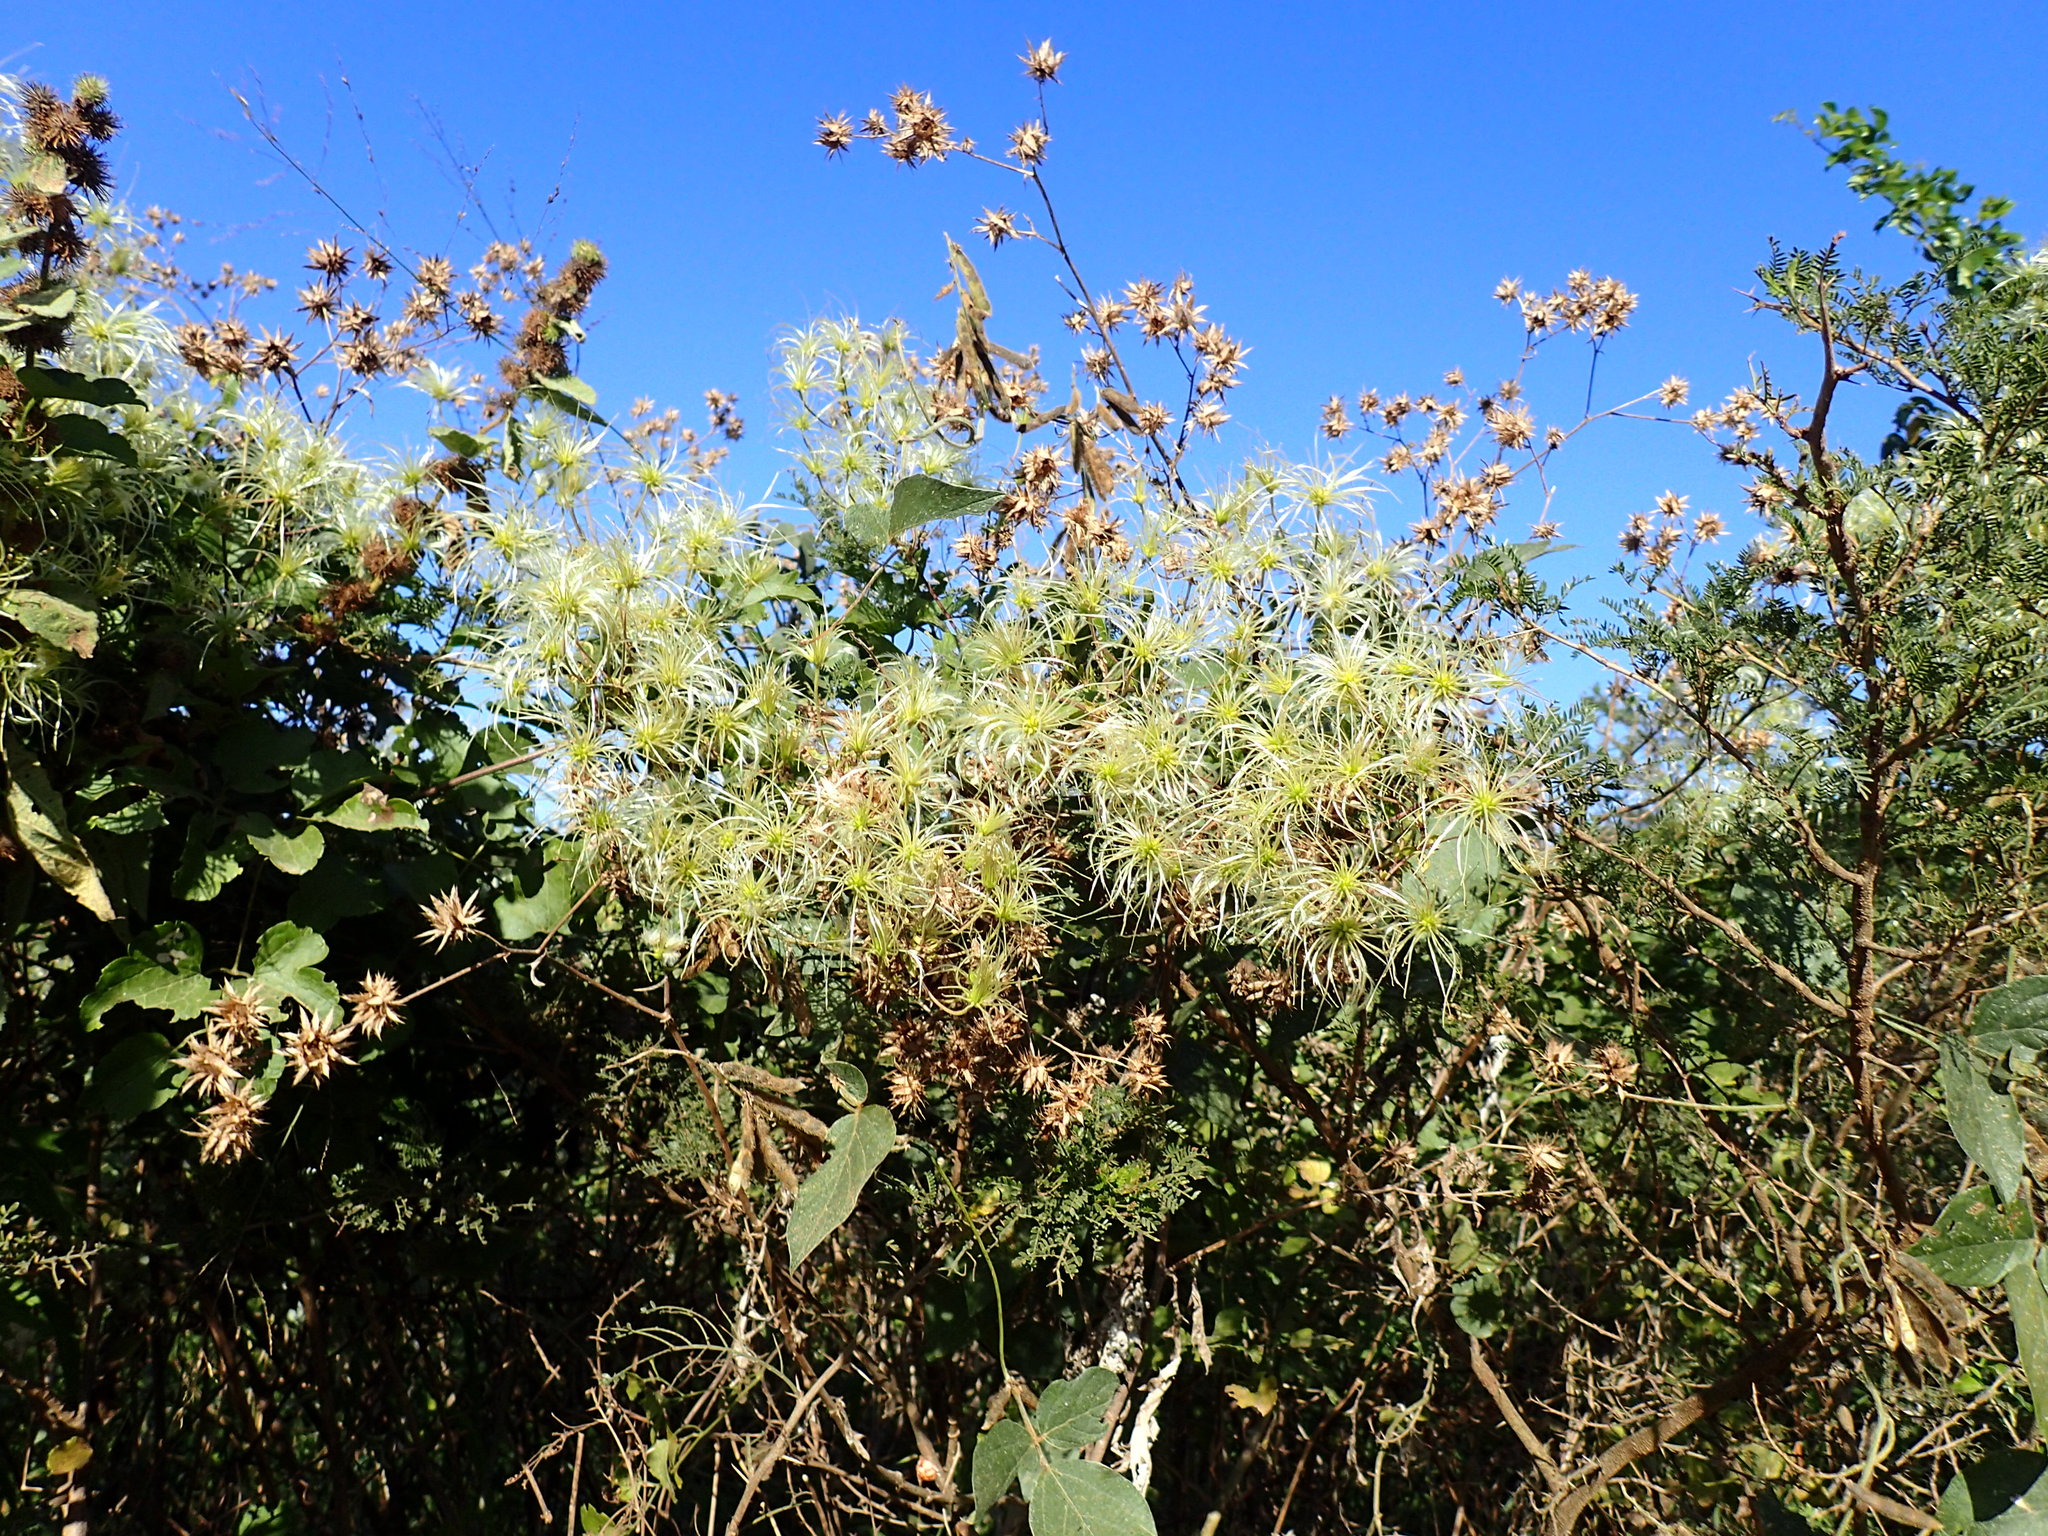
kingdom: Plantae
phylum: Tracheophyta
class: Magnoliopsida
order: Ranunculales
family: Ranunculaceae
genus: Clematis
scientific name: Clematis brachiata
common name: Traveler's-joy
